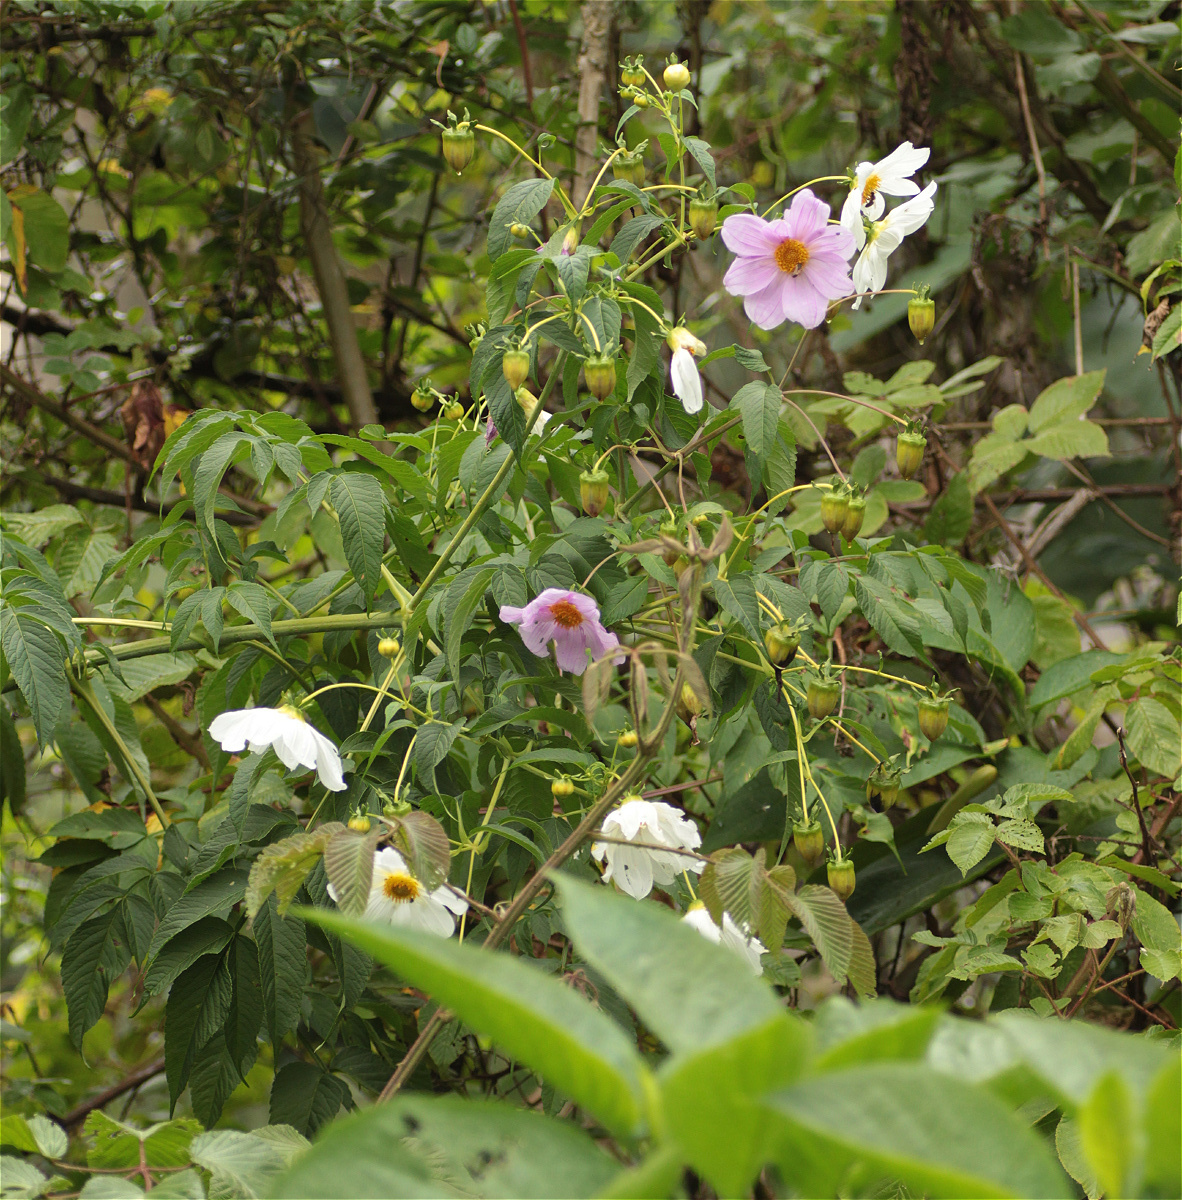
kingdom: Plantae
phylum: Tracheophyta
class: Magnoliopsida
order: Asterales
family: Asteraceae
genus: Dahlia
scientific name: Dahlia imperialis
